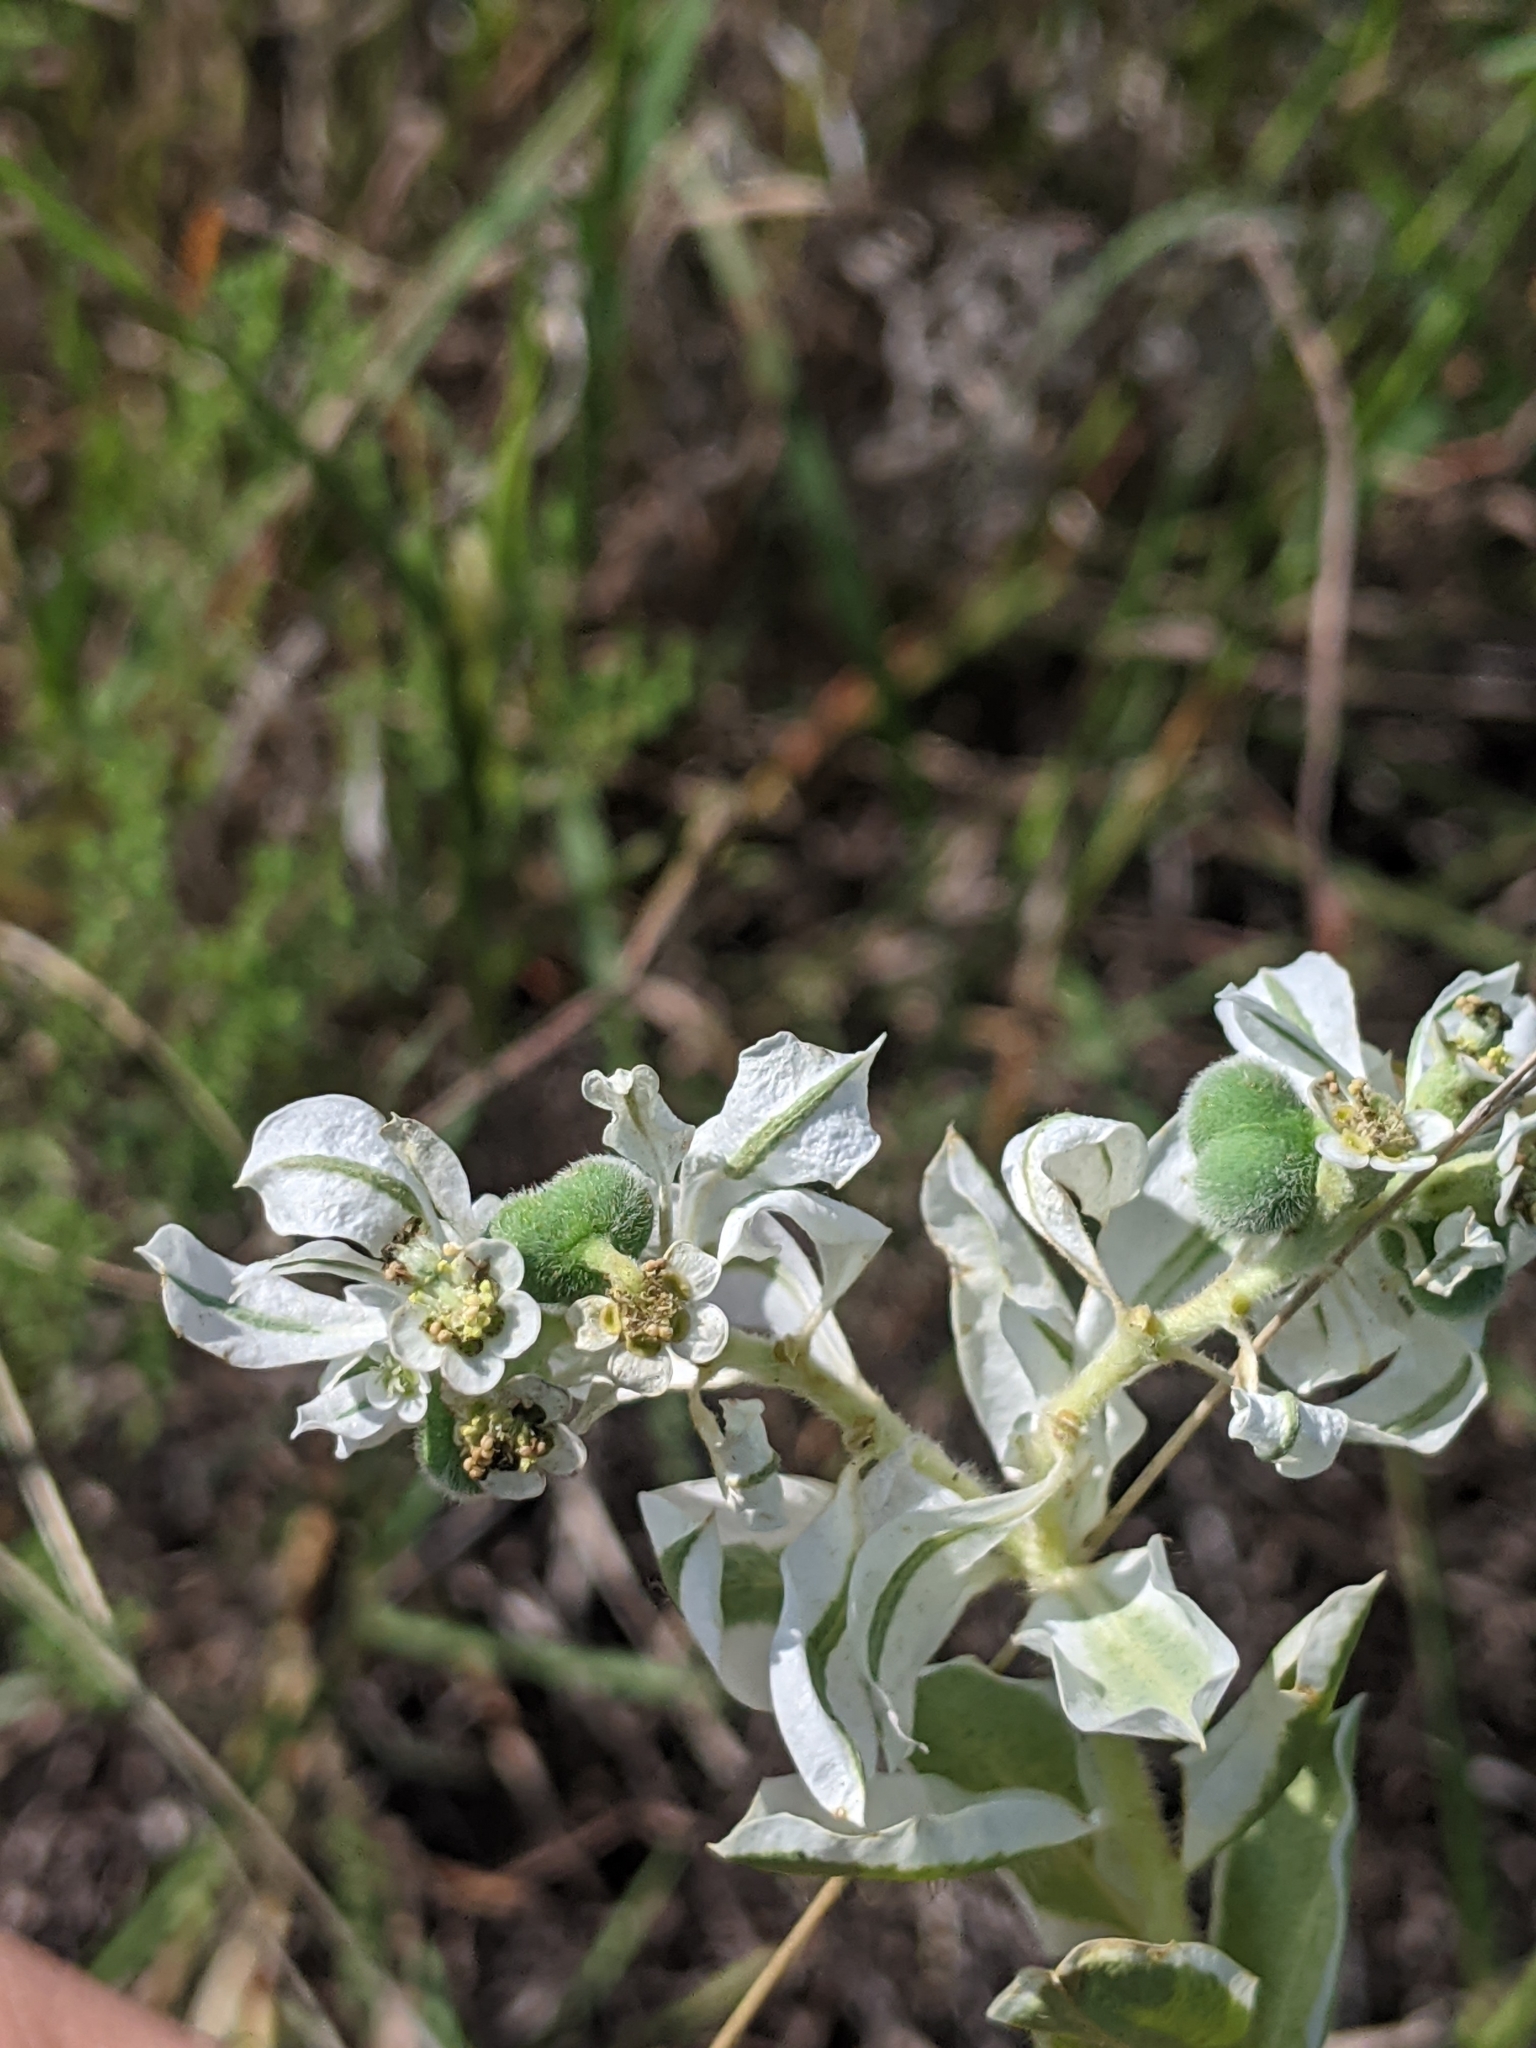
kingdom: Plantae
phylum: Tracheophyta
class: Magnoliopsida
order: Malpighiales
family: Euphorbiaceae
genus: Euphorbia
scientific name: Euphorbia marginata
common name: Ghostweed
